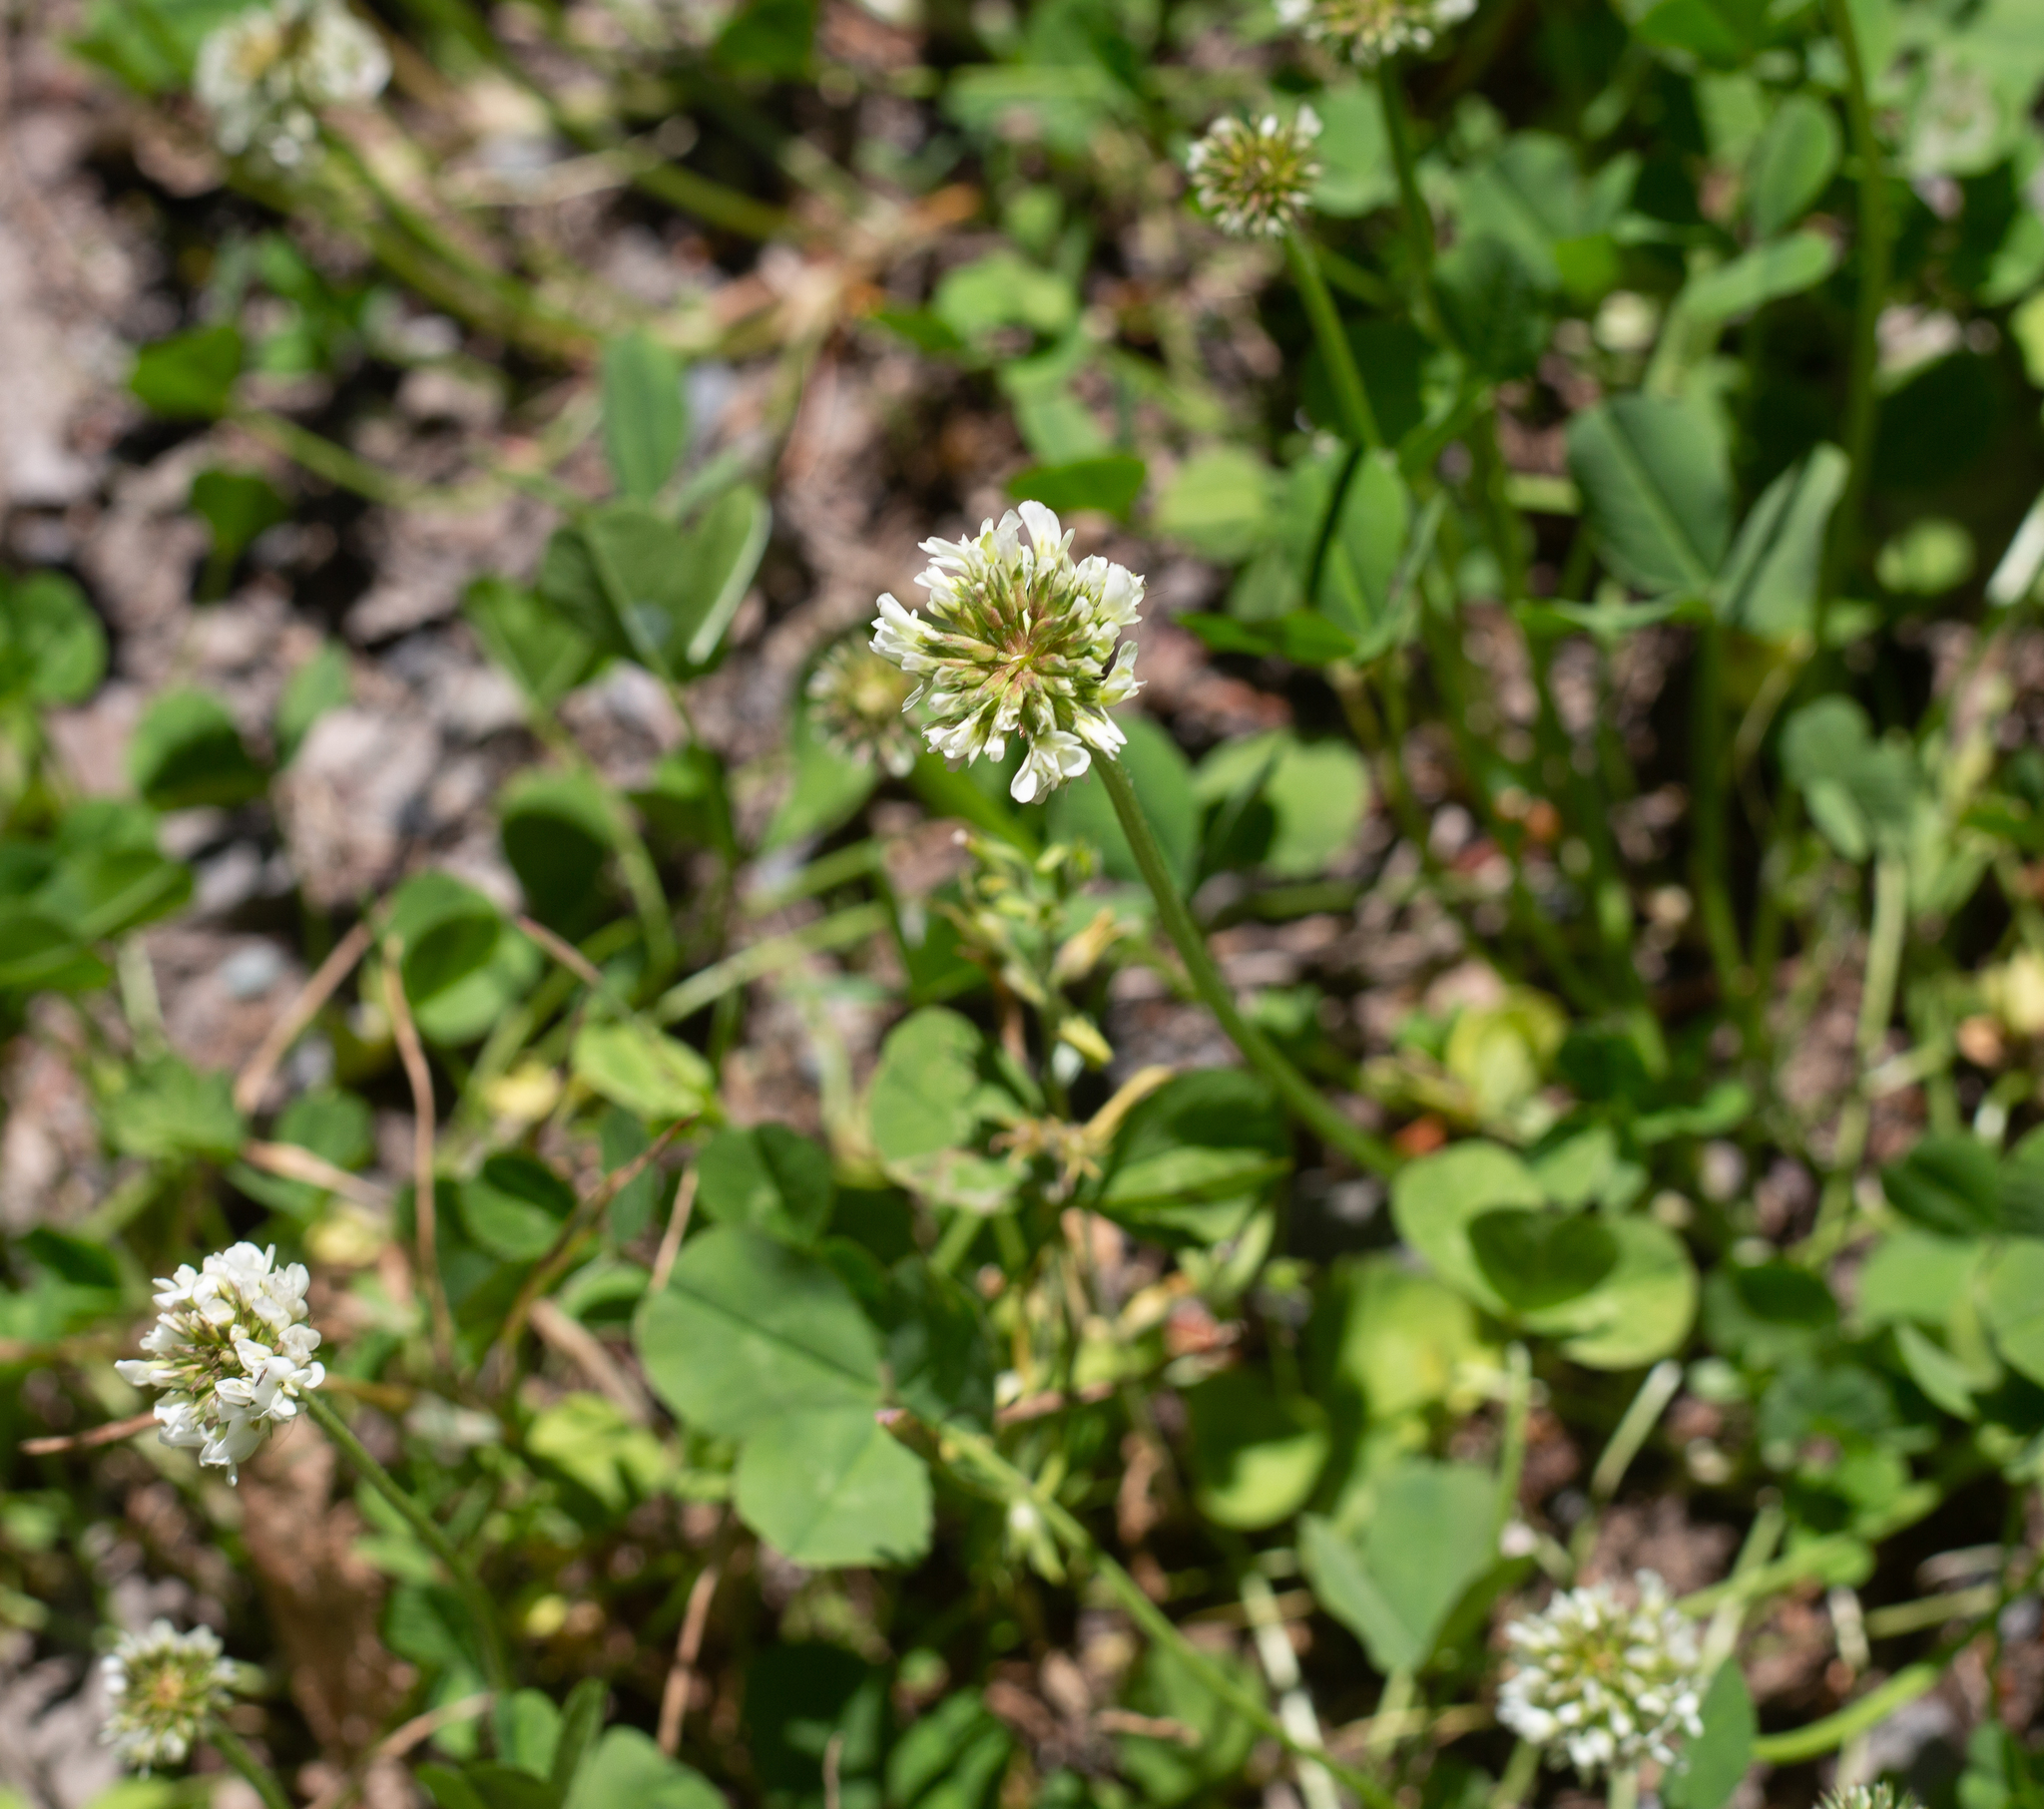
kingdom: Plantae
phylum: Tracheophyta
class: Magnoliopsida
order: Fabales
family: Fabaceae
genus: Trifolium
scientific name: Trifolium repens
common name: White clover
